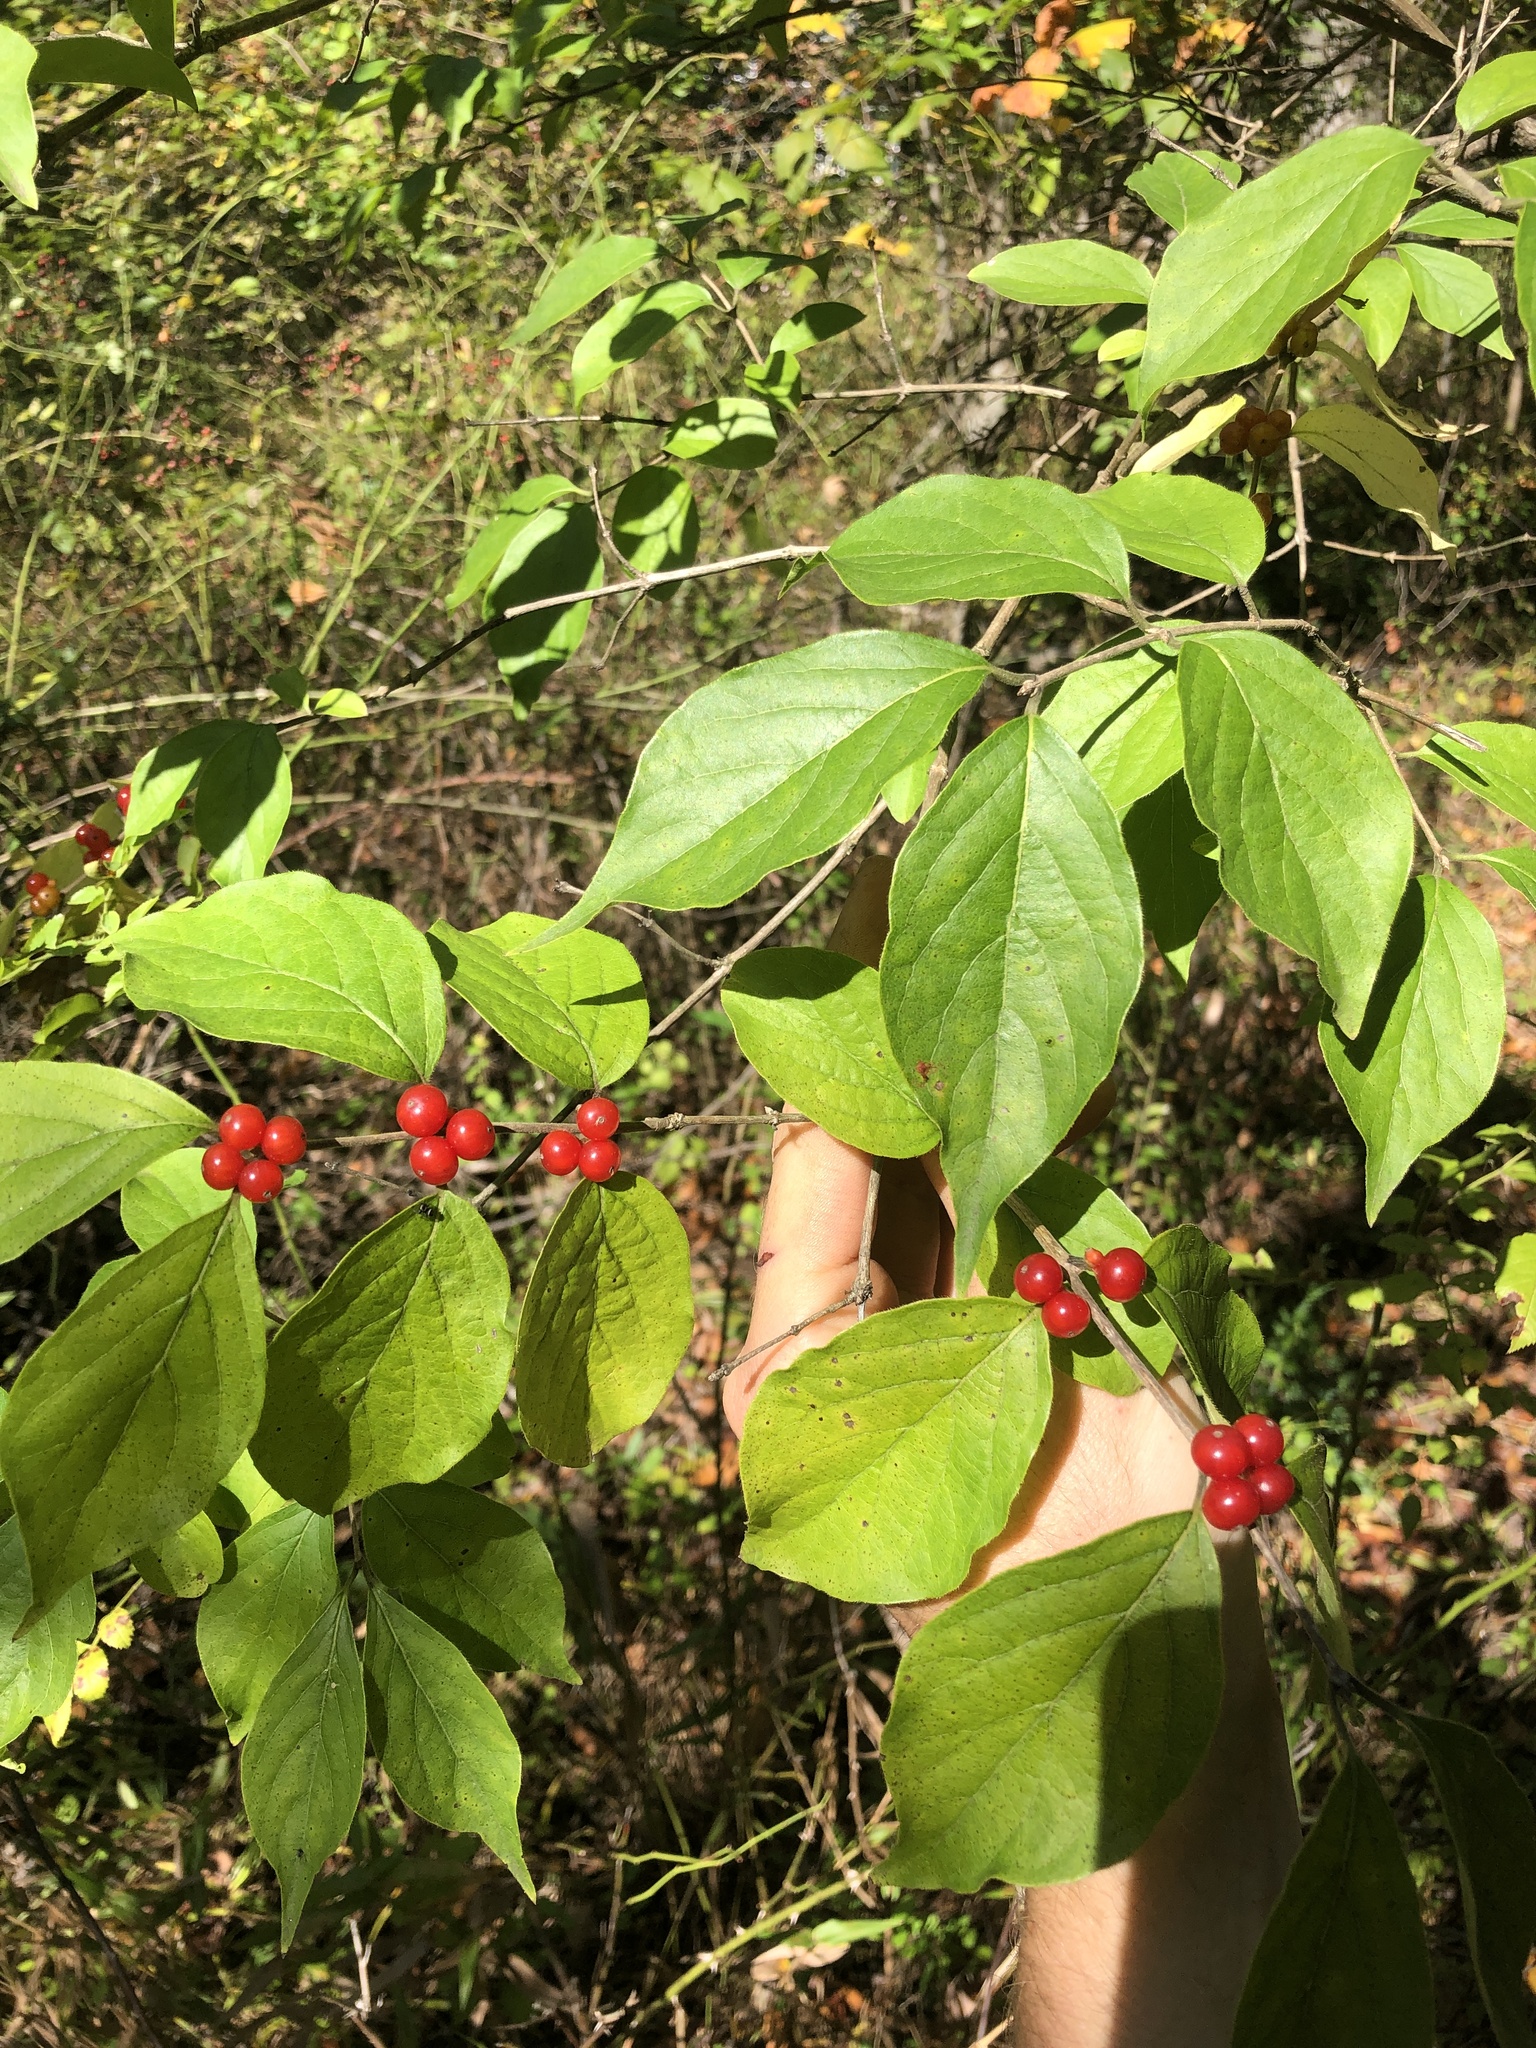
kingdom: Plantae
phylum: Tracheophyta
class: Magnoliopsida
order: Dipsacales
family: Caprifoliaceae
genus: Lonicera
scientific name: Lonicera maackii
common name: Amur honeysuckle
